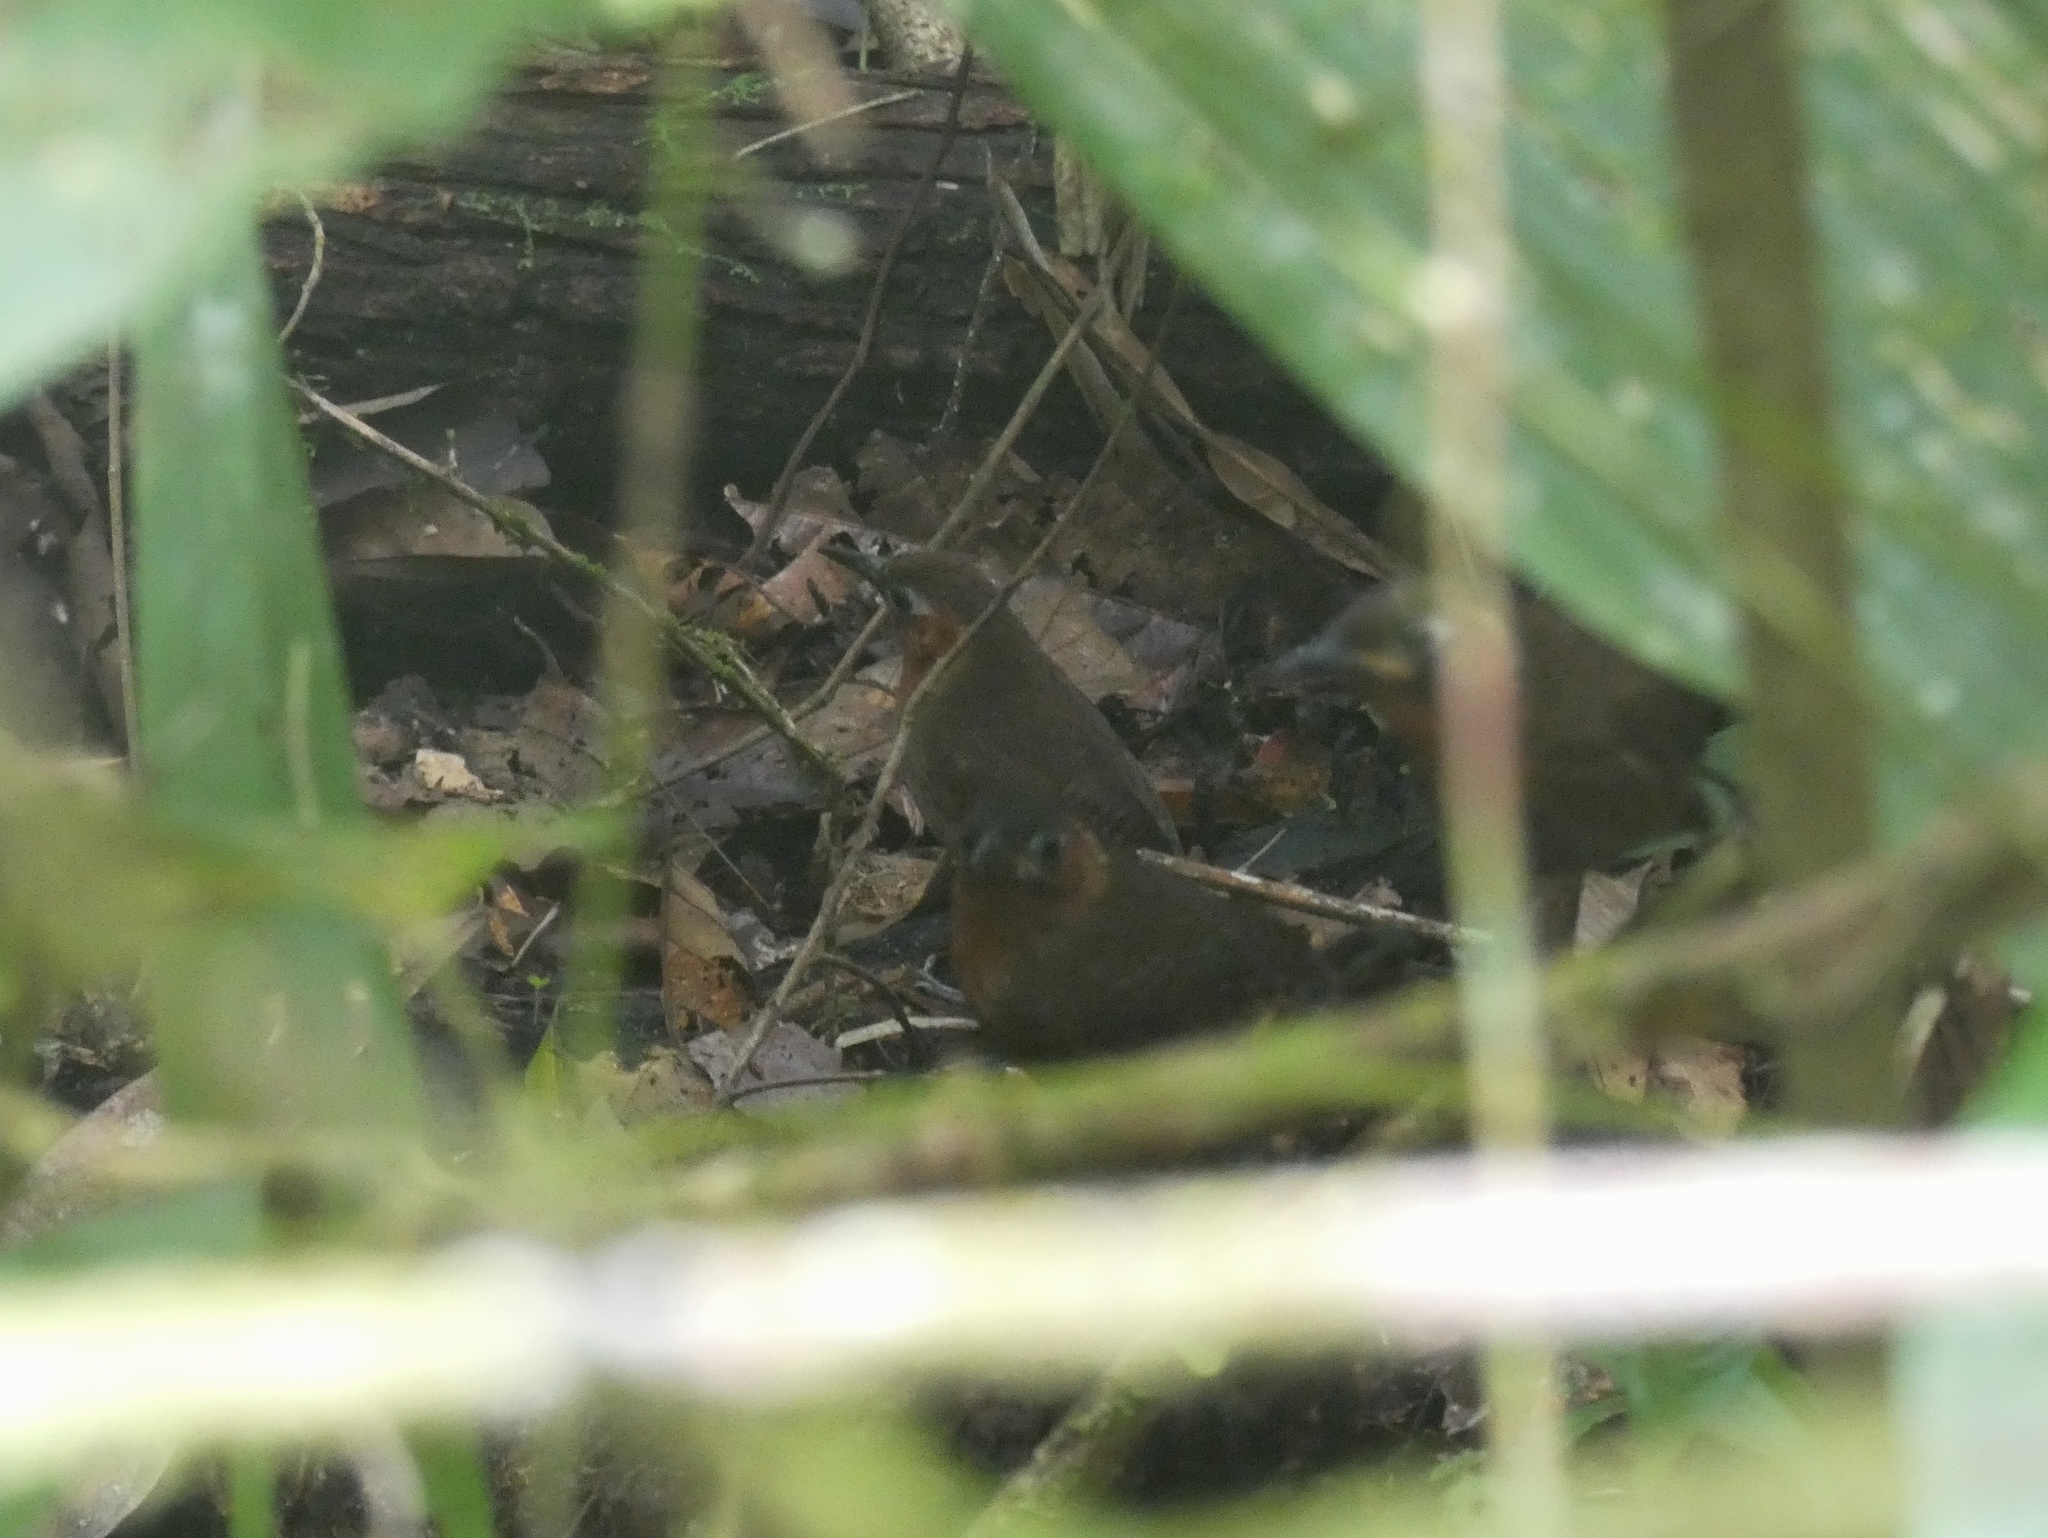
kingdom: Animalia
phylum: Chordata
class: Aves
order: Passeriformes
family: Troglodytidae
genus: Cyphorhinus
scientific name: Cyphorhinus phaeocephalus
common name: Song wren
